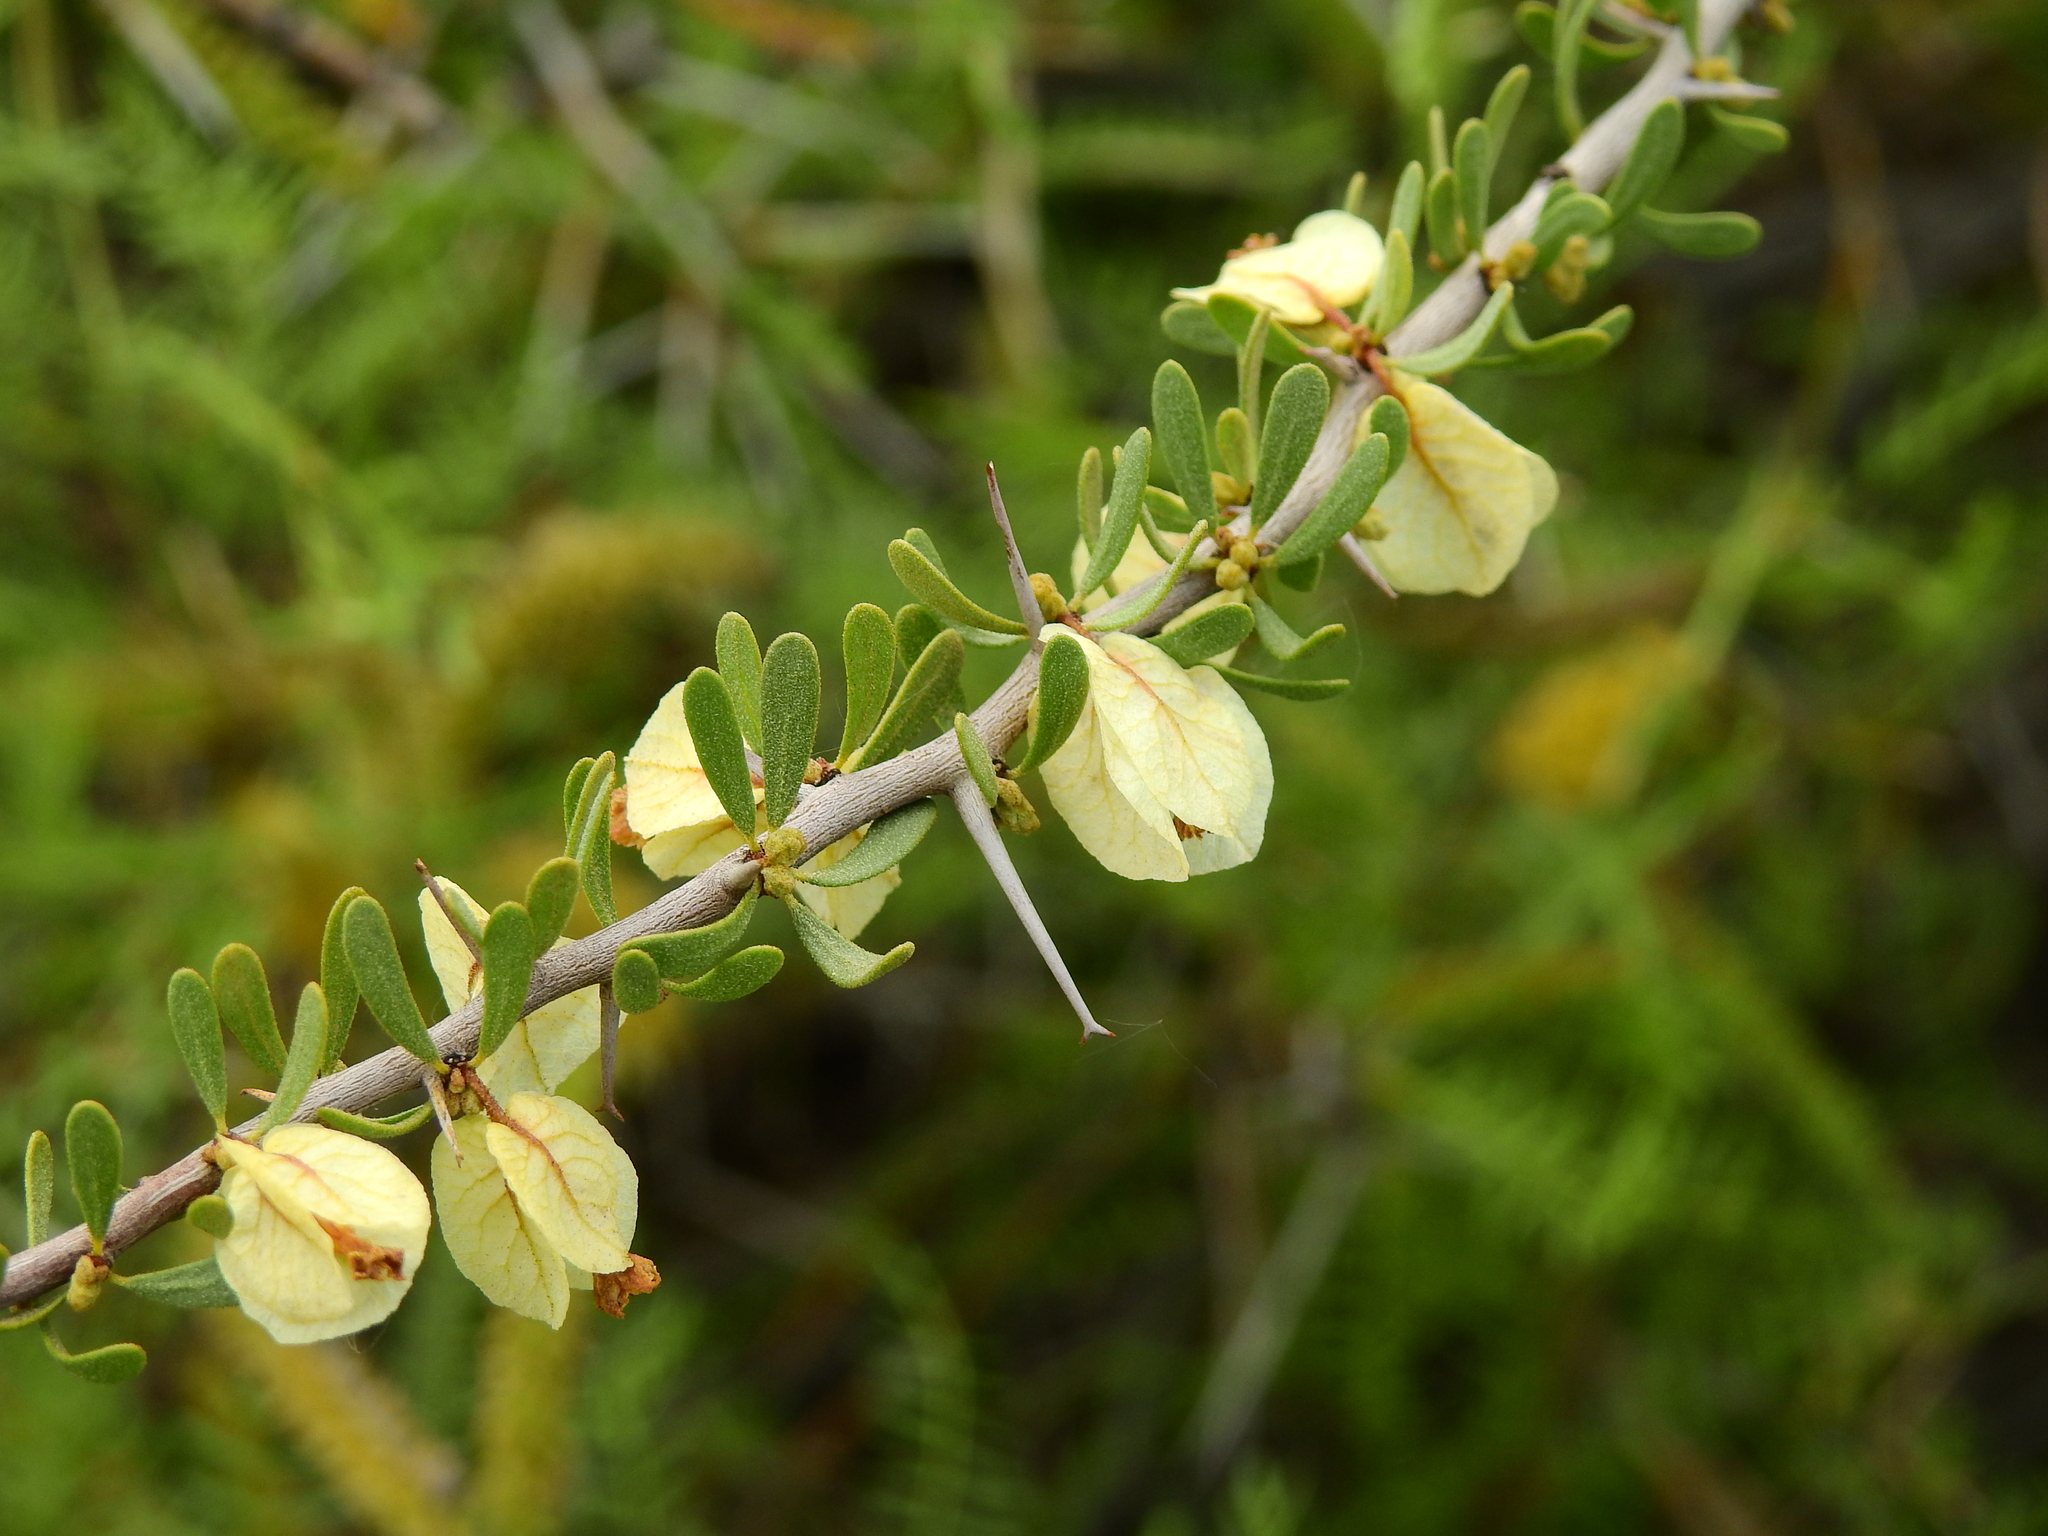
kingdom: Plantae
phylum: Tracheophyta
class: Magnoliopsida
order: Caryophyllales
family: Nyctaginaceae
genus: Bougainvillea
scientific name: Bougainvillea spinosa
